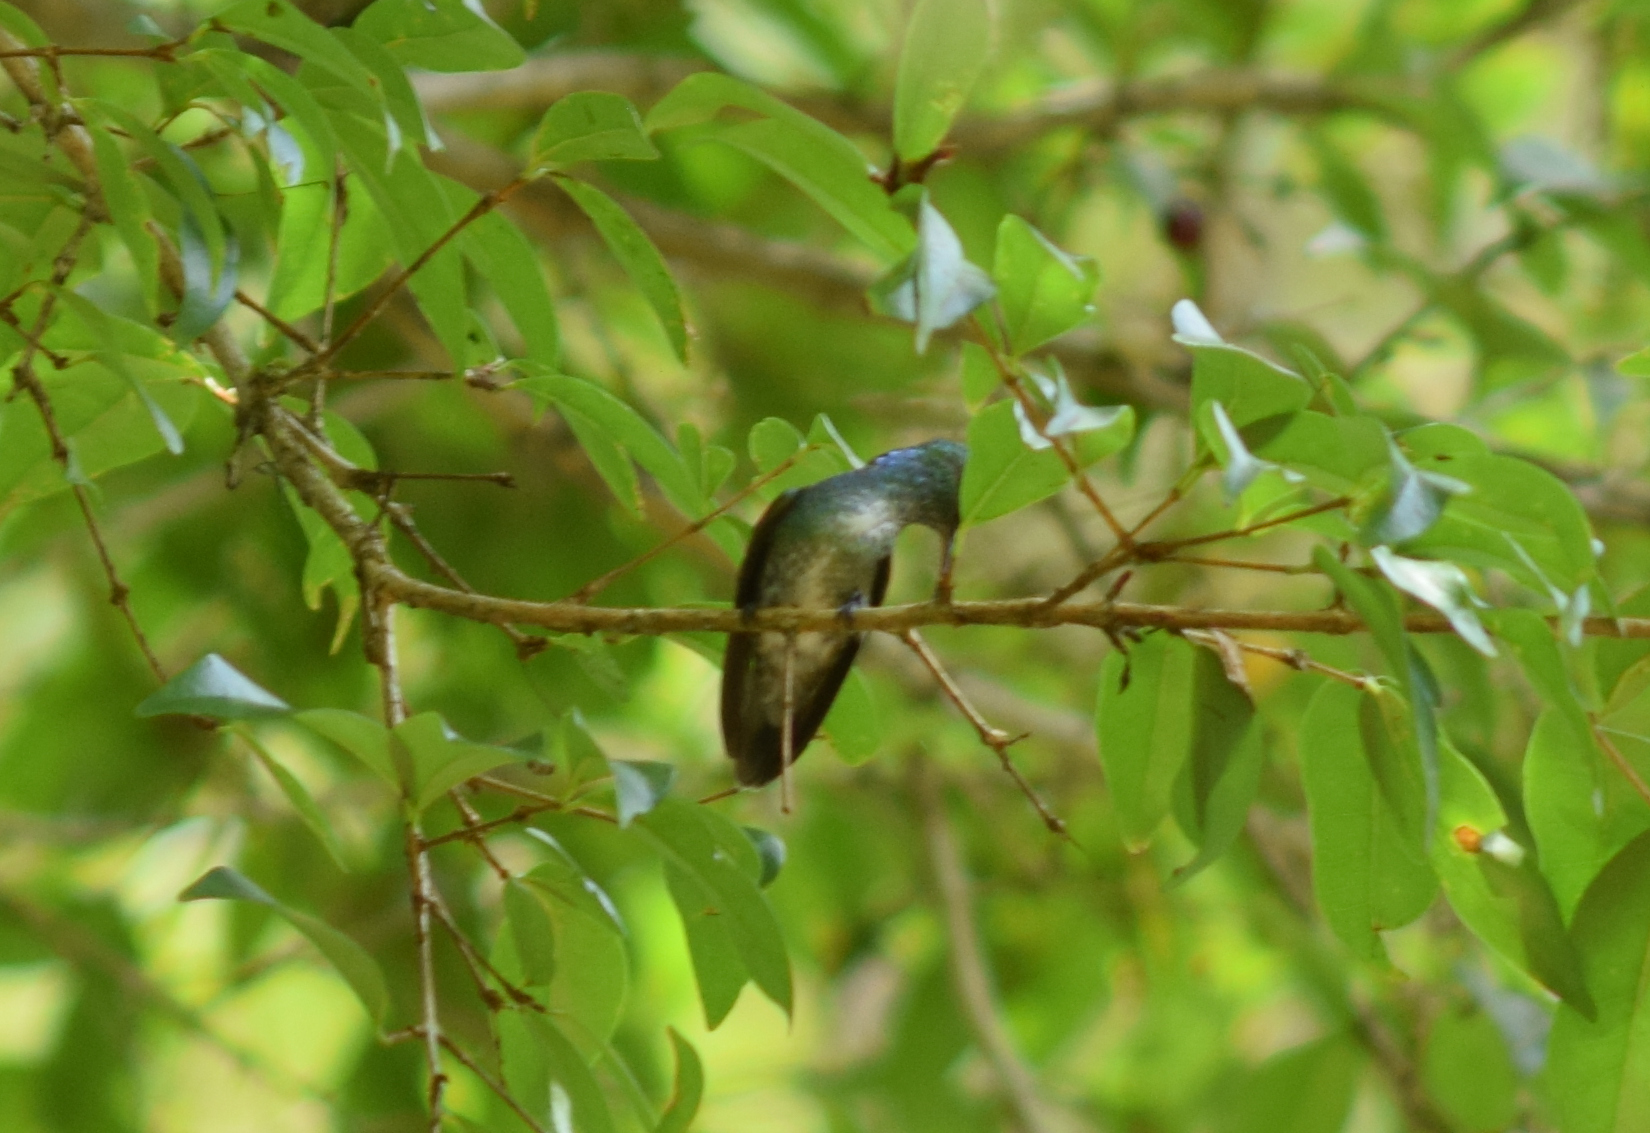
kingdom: Animalia
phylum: Chordata
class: Aves
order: Apodiformes
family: Trochilidae
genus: Chrysuronia
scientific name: Chrysuronia versicolor
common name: Versicolored emerald
